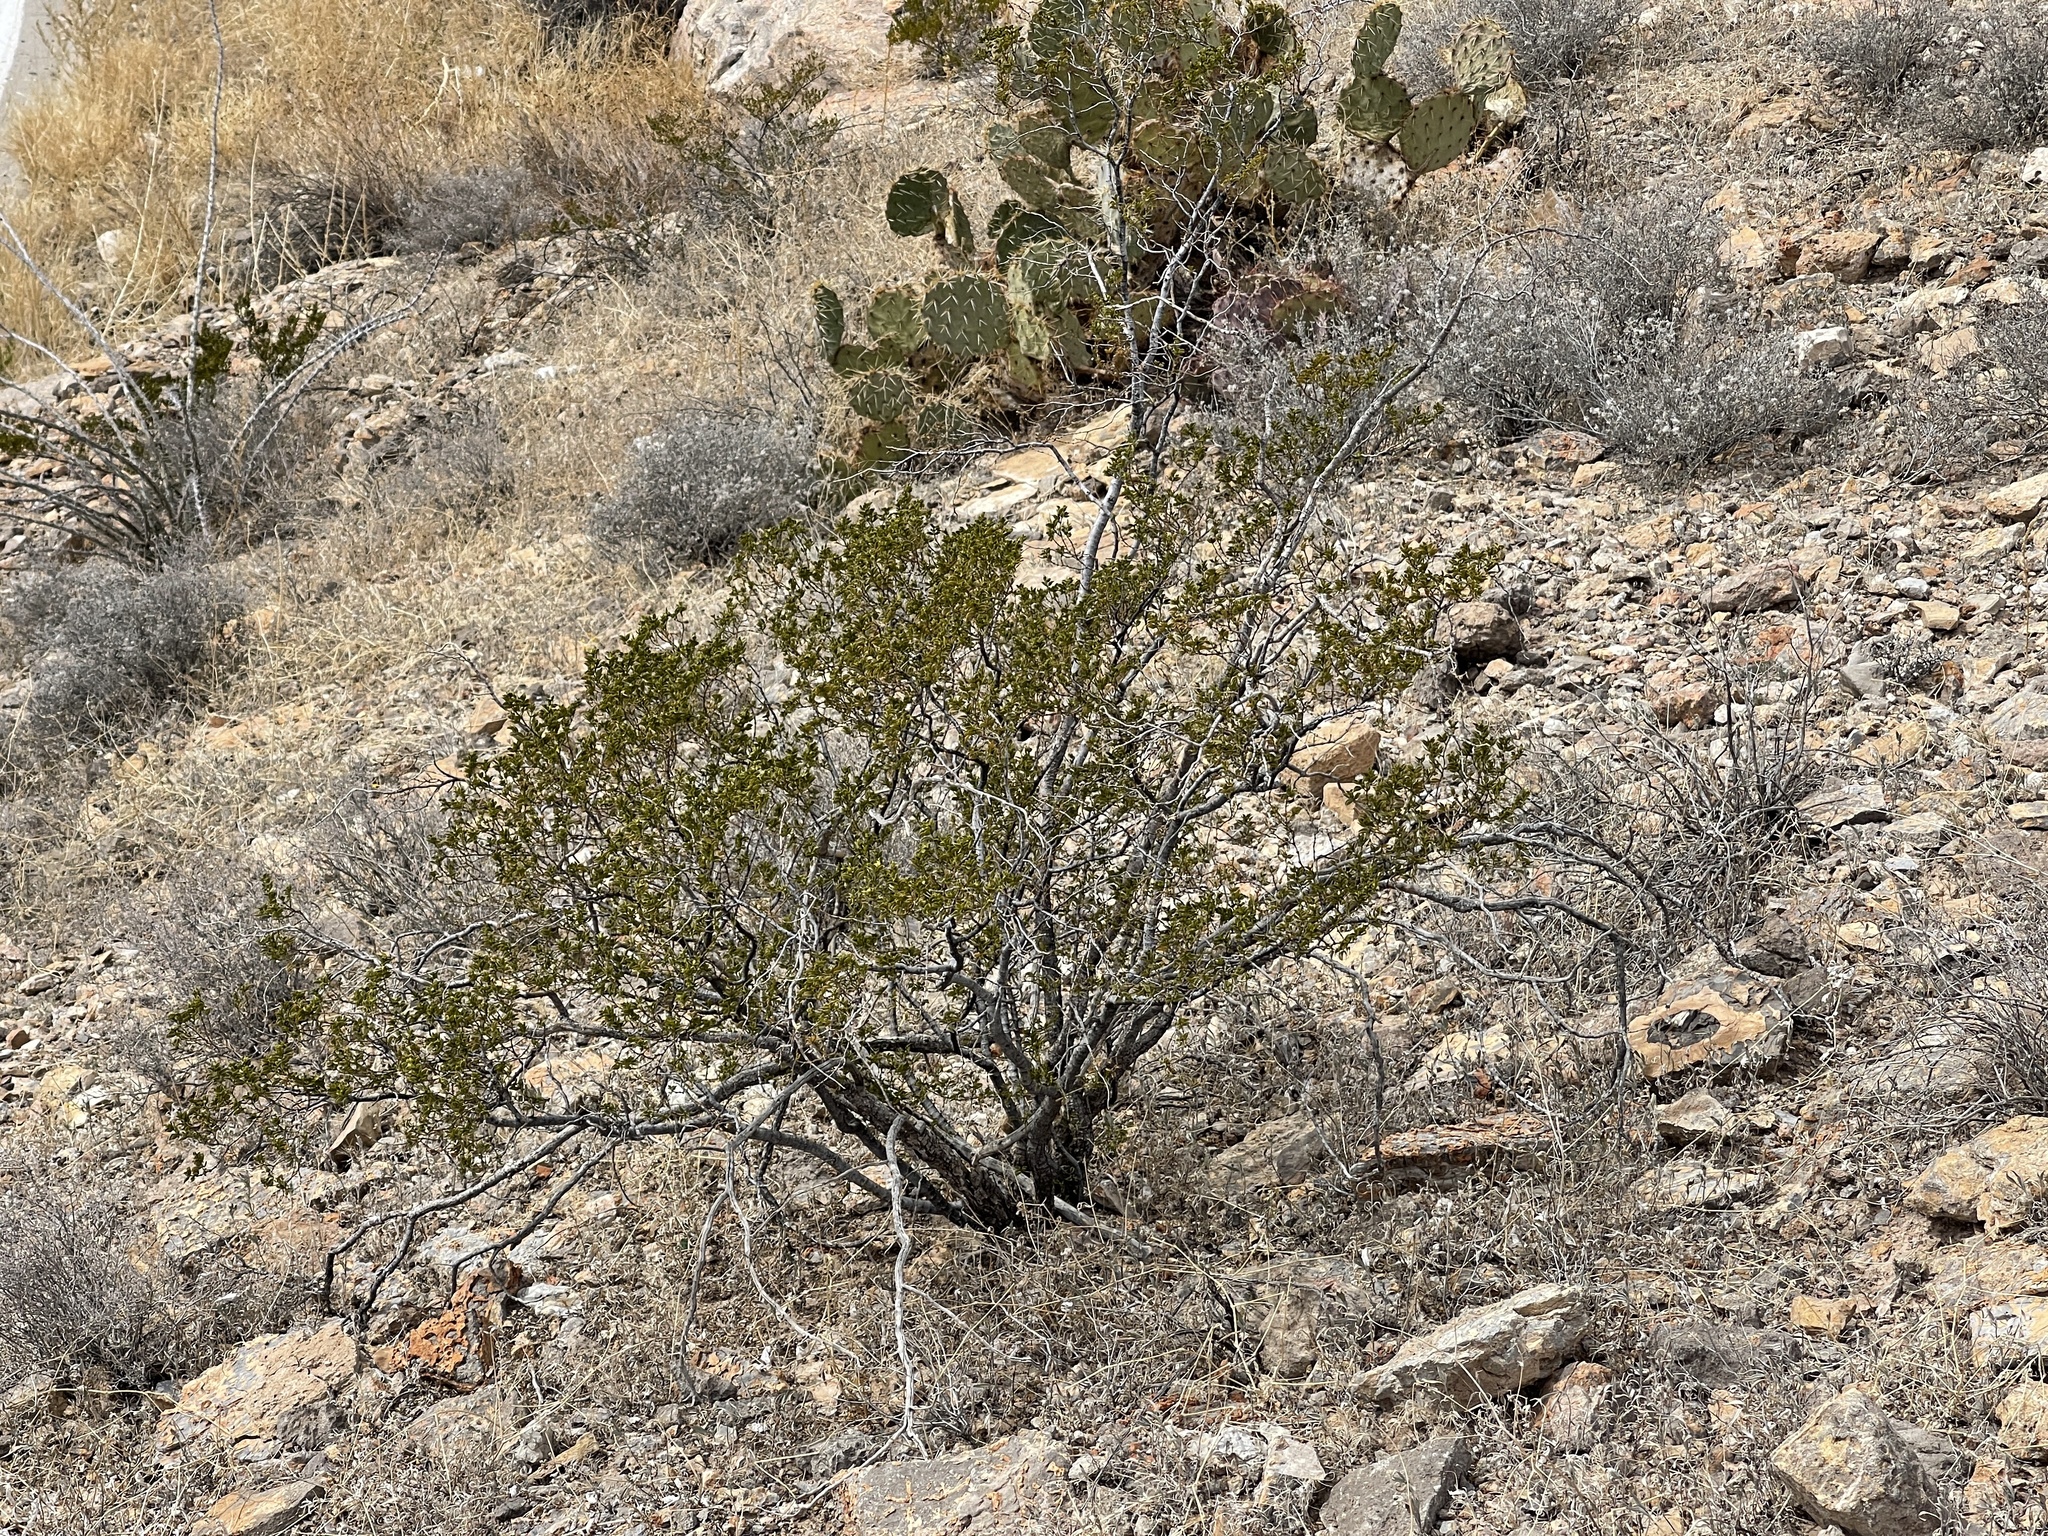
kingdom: Plantae
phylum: Tracheophyta
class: Magnoliopsida
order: Zygophyllales
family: Zygophyllaceae
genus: Larrea
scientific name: Larrea tridentata
